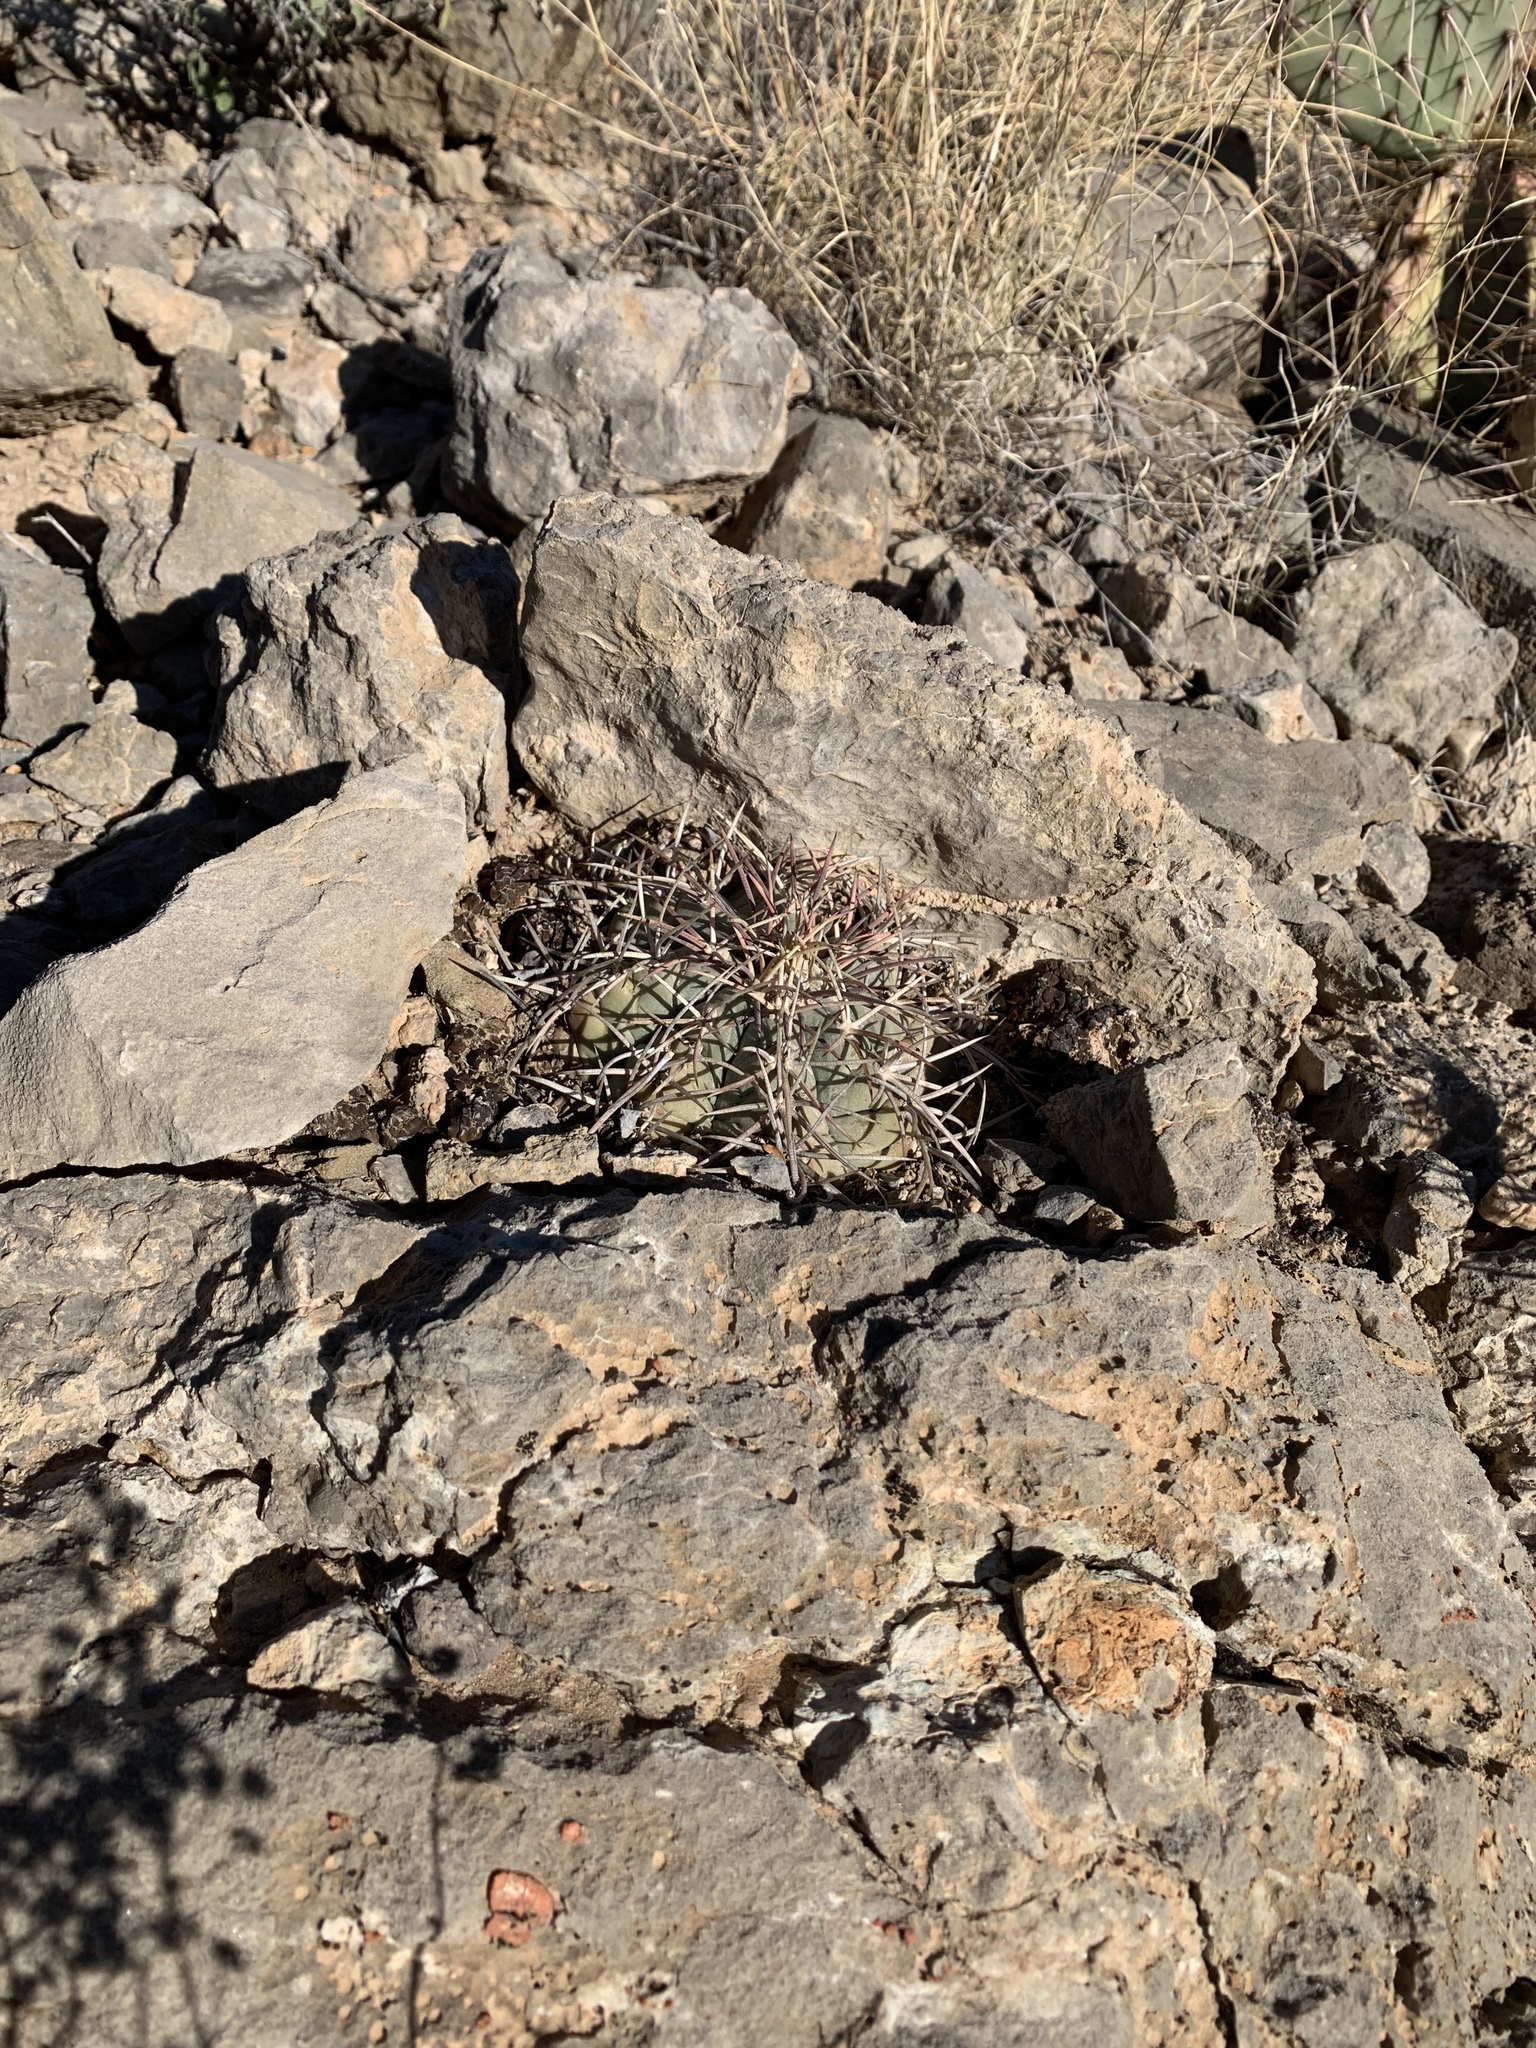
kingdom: Plantae
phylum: Tracheophyta
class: Magnoliopsida
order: Caryophyllales
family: Cactaceae
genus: Echinocactus
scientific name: Echinocactus horizonthalonius
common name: Devilshead
